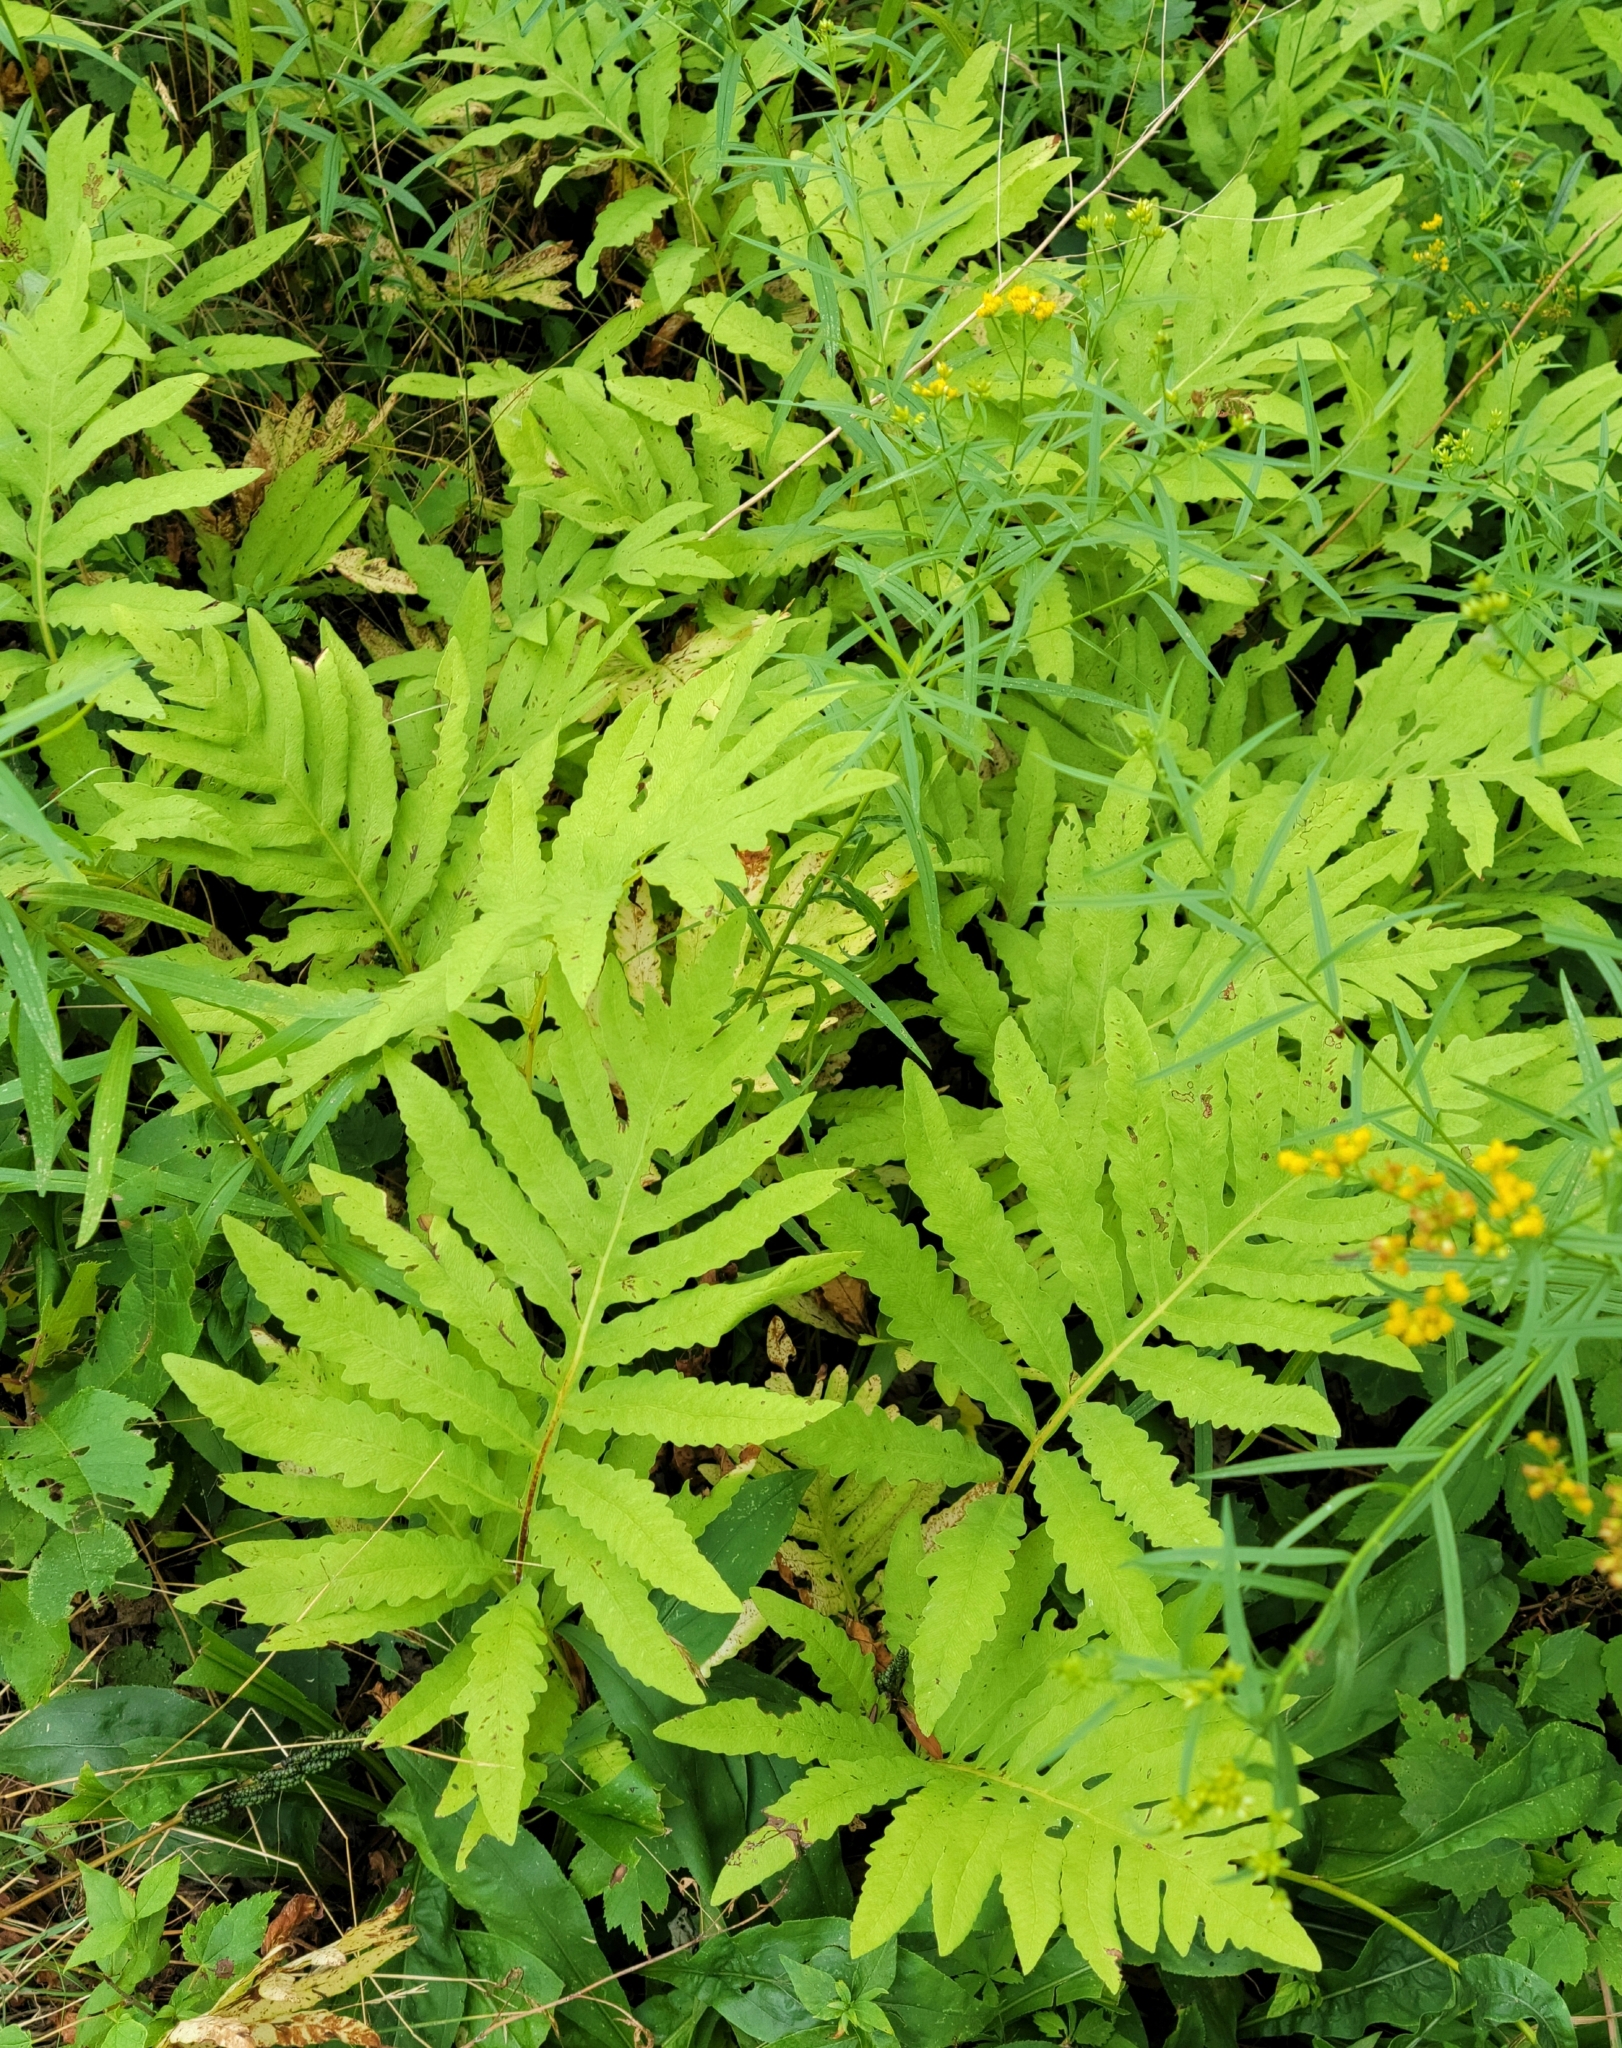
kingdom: Plantae
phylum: Tracheophyta
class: Polypodiopsida
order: Polypodiales
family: Onocleaceae
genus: Onoclea
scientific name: Onoclea sensibilis
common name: Sensitive fern
